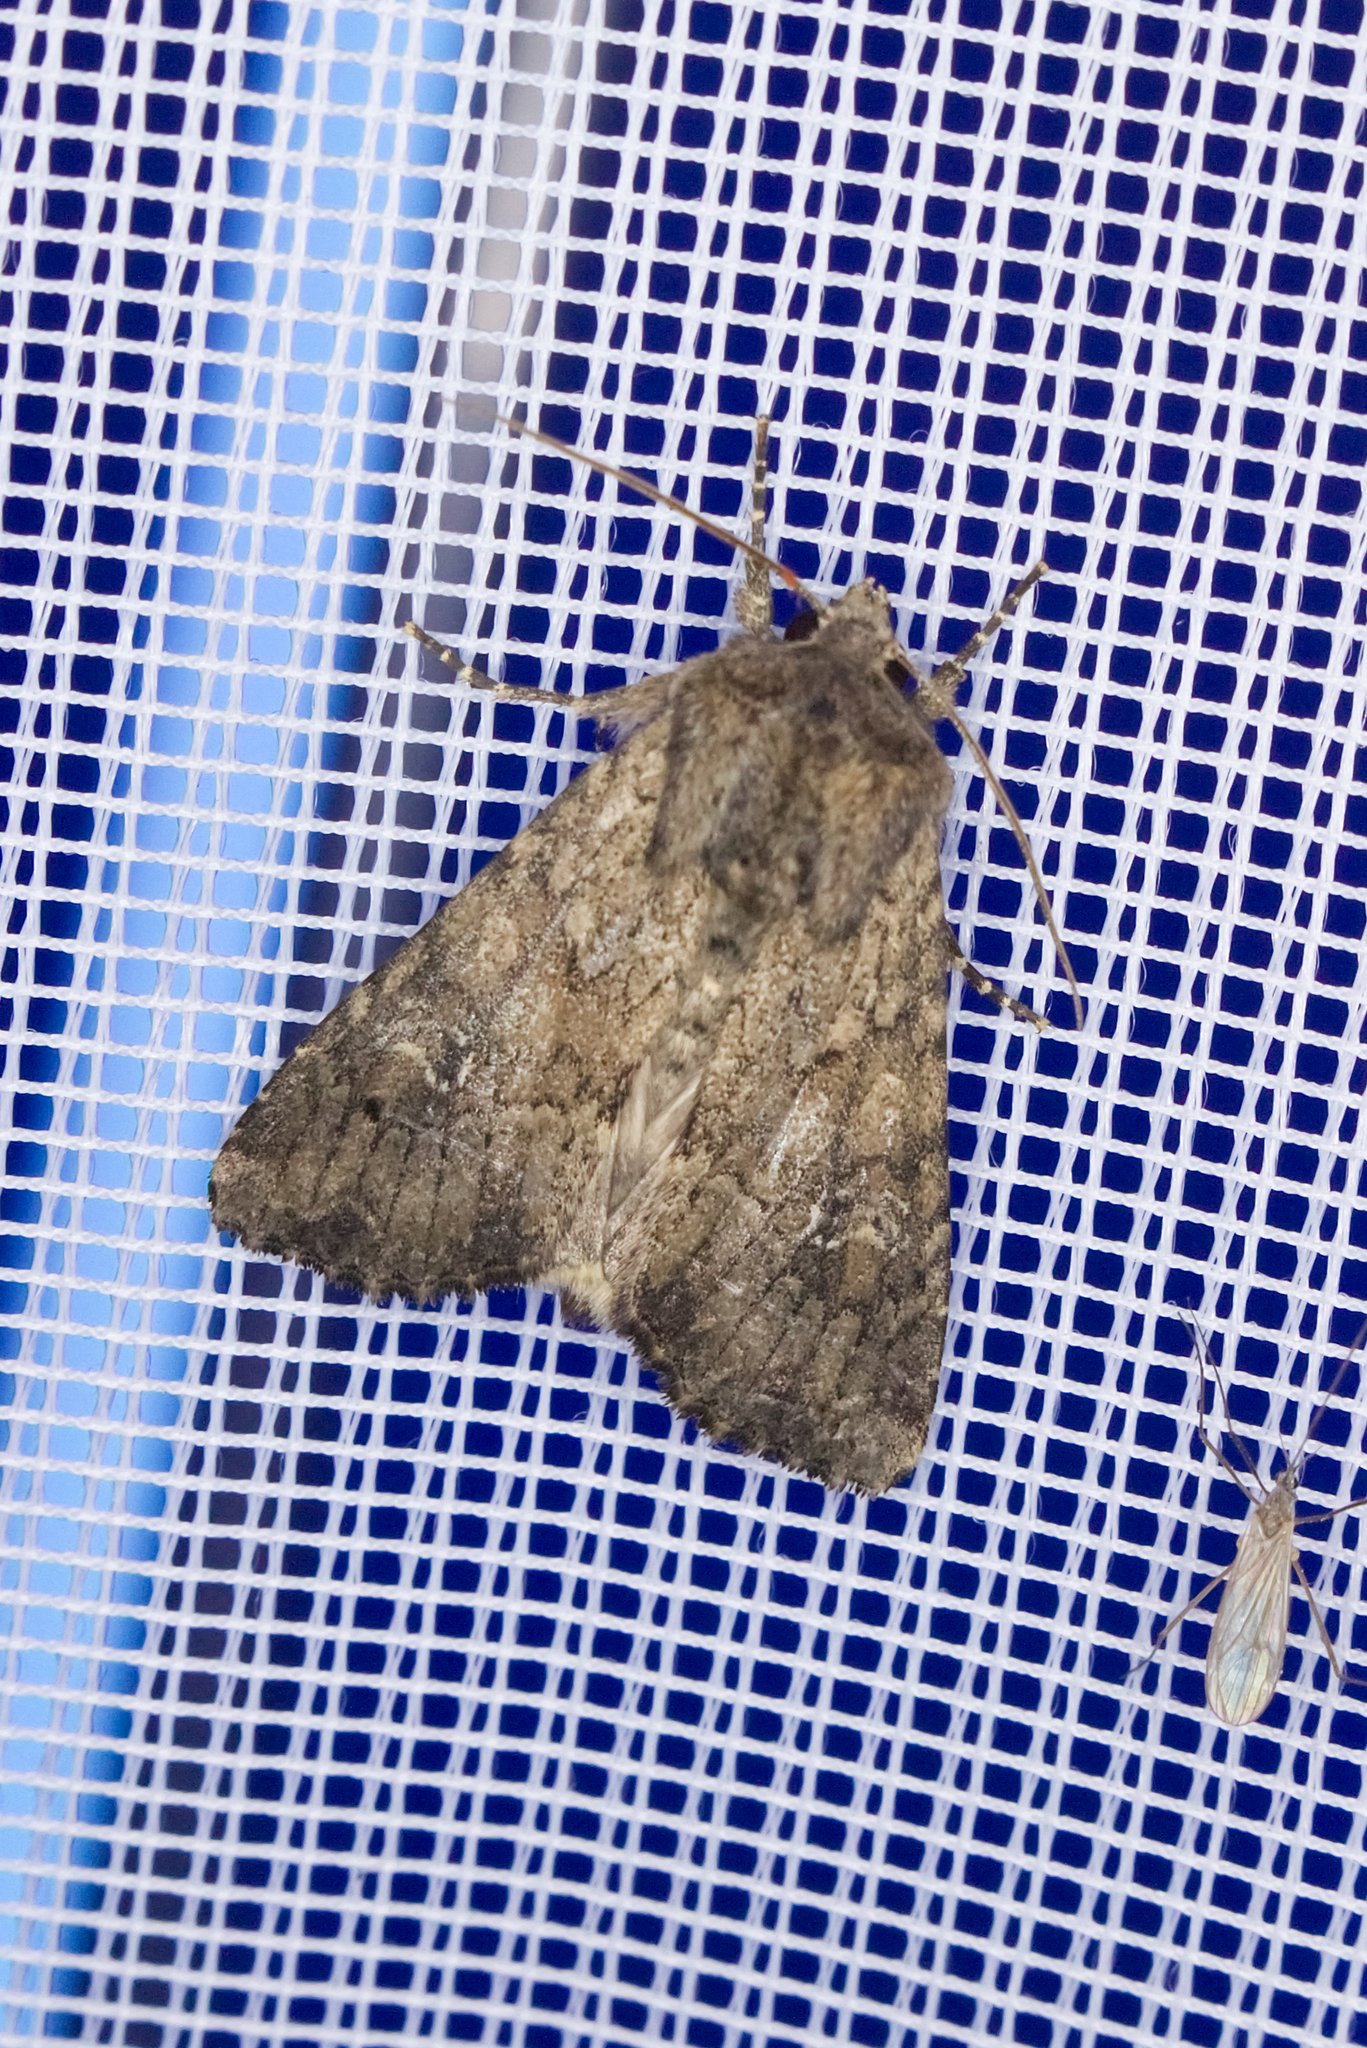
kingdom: Animalia
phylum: Arthropoda
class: Insecta
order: Lepidoptera
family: Noctuidae
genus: Apamea
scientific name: Apamea anceps
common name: Large nutmeg
